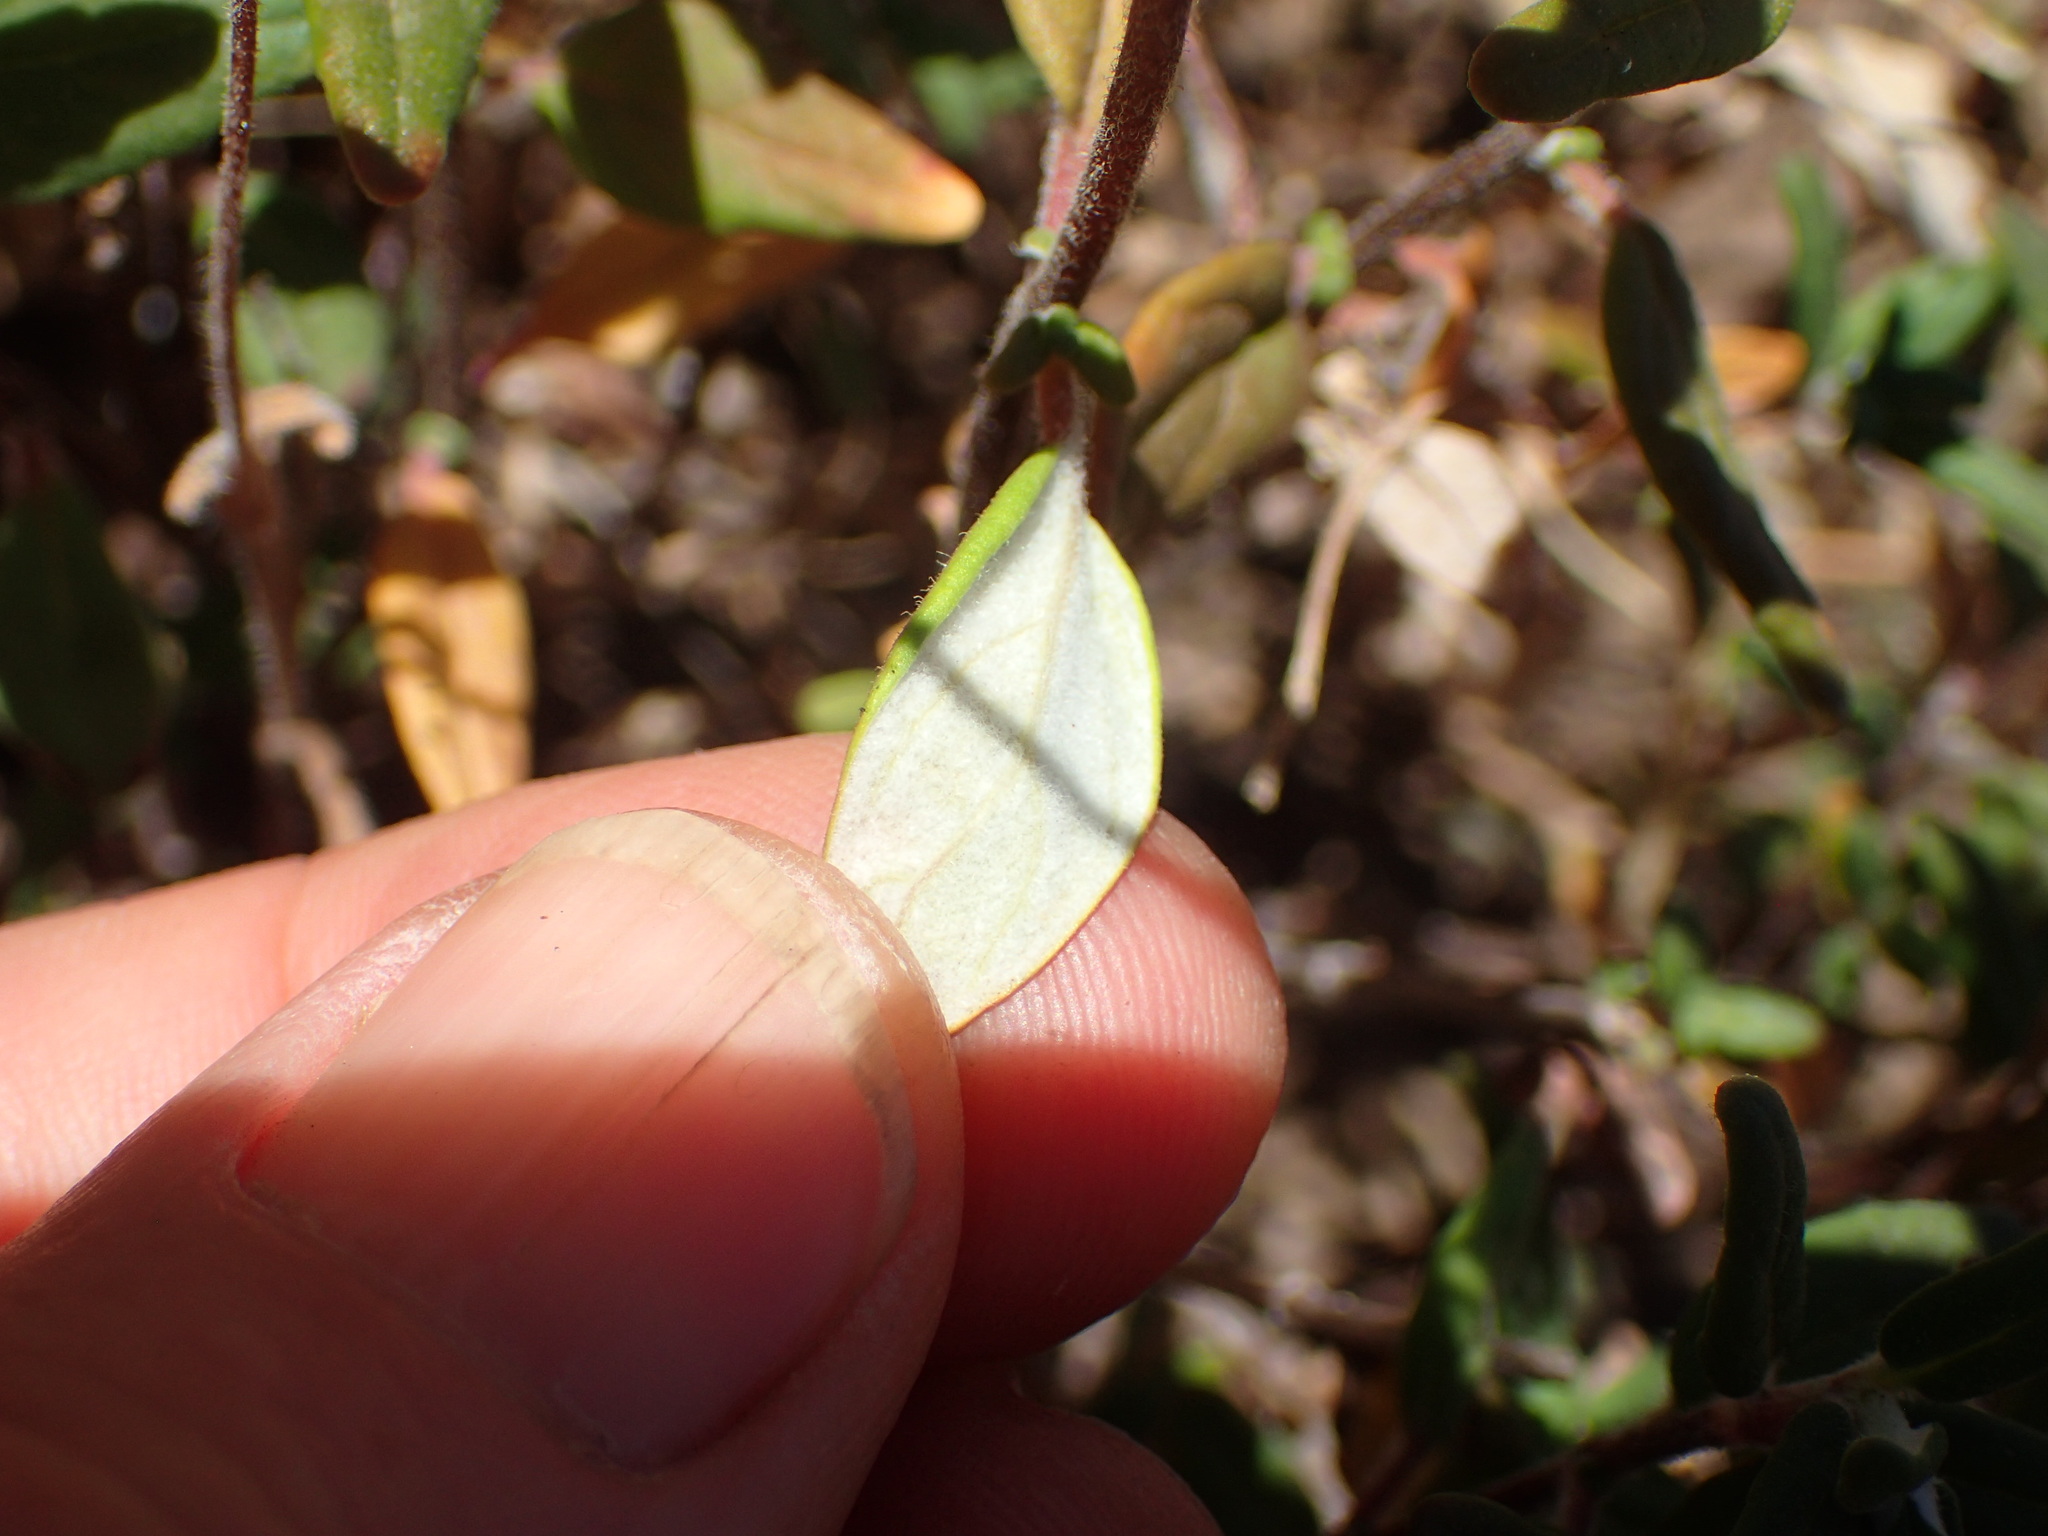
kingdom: Plantae
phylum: Tracheophyta
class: Magnoliopsida
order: Lamiales
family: Lamiaceae
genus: Monardella
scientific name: Monardella hypoleuca
